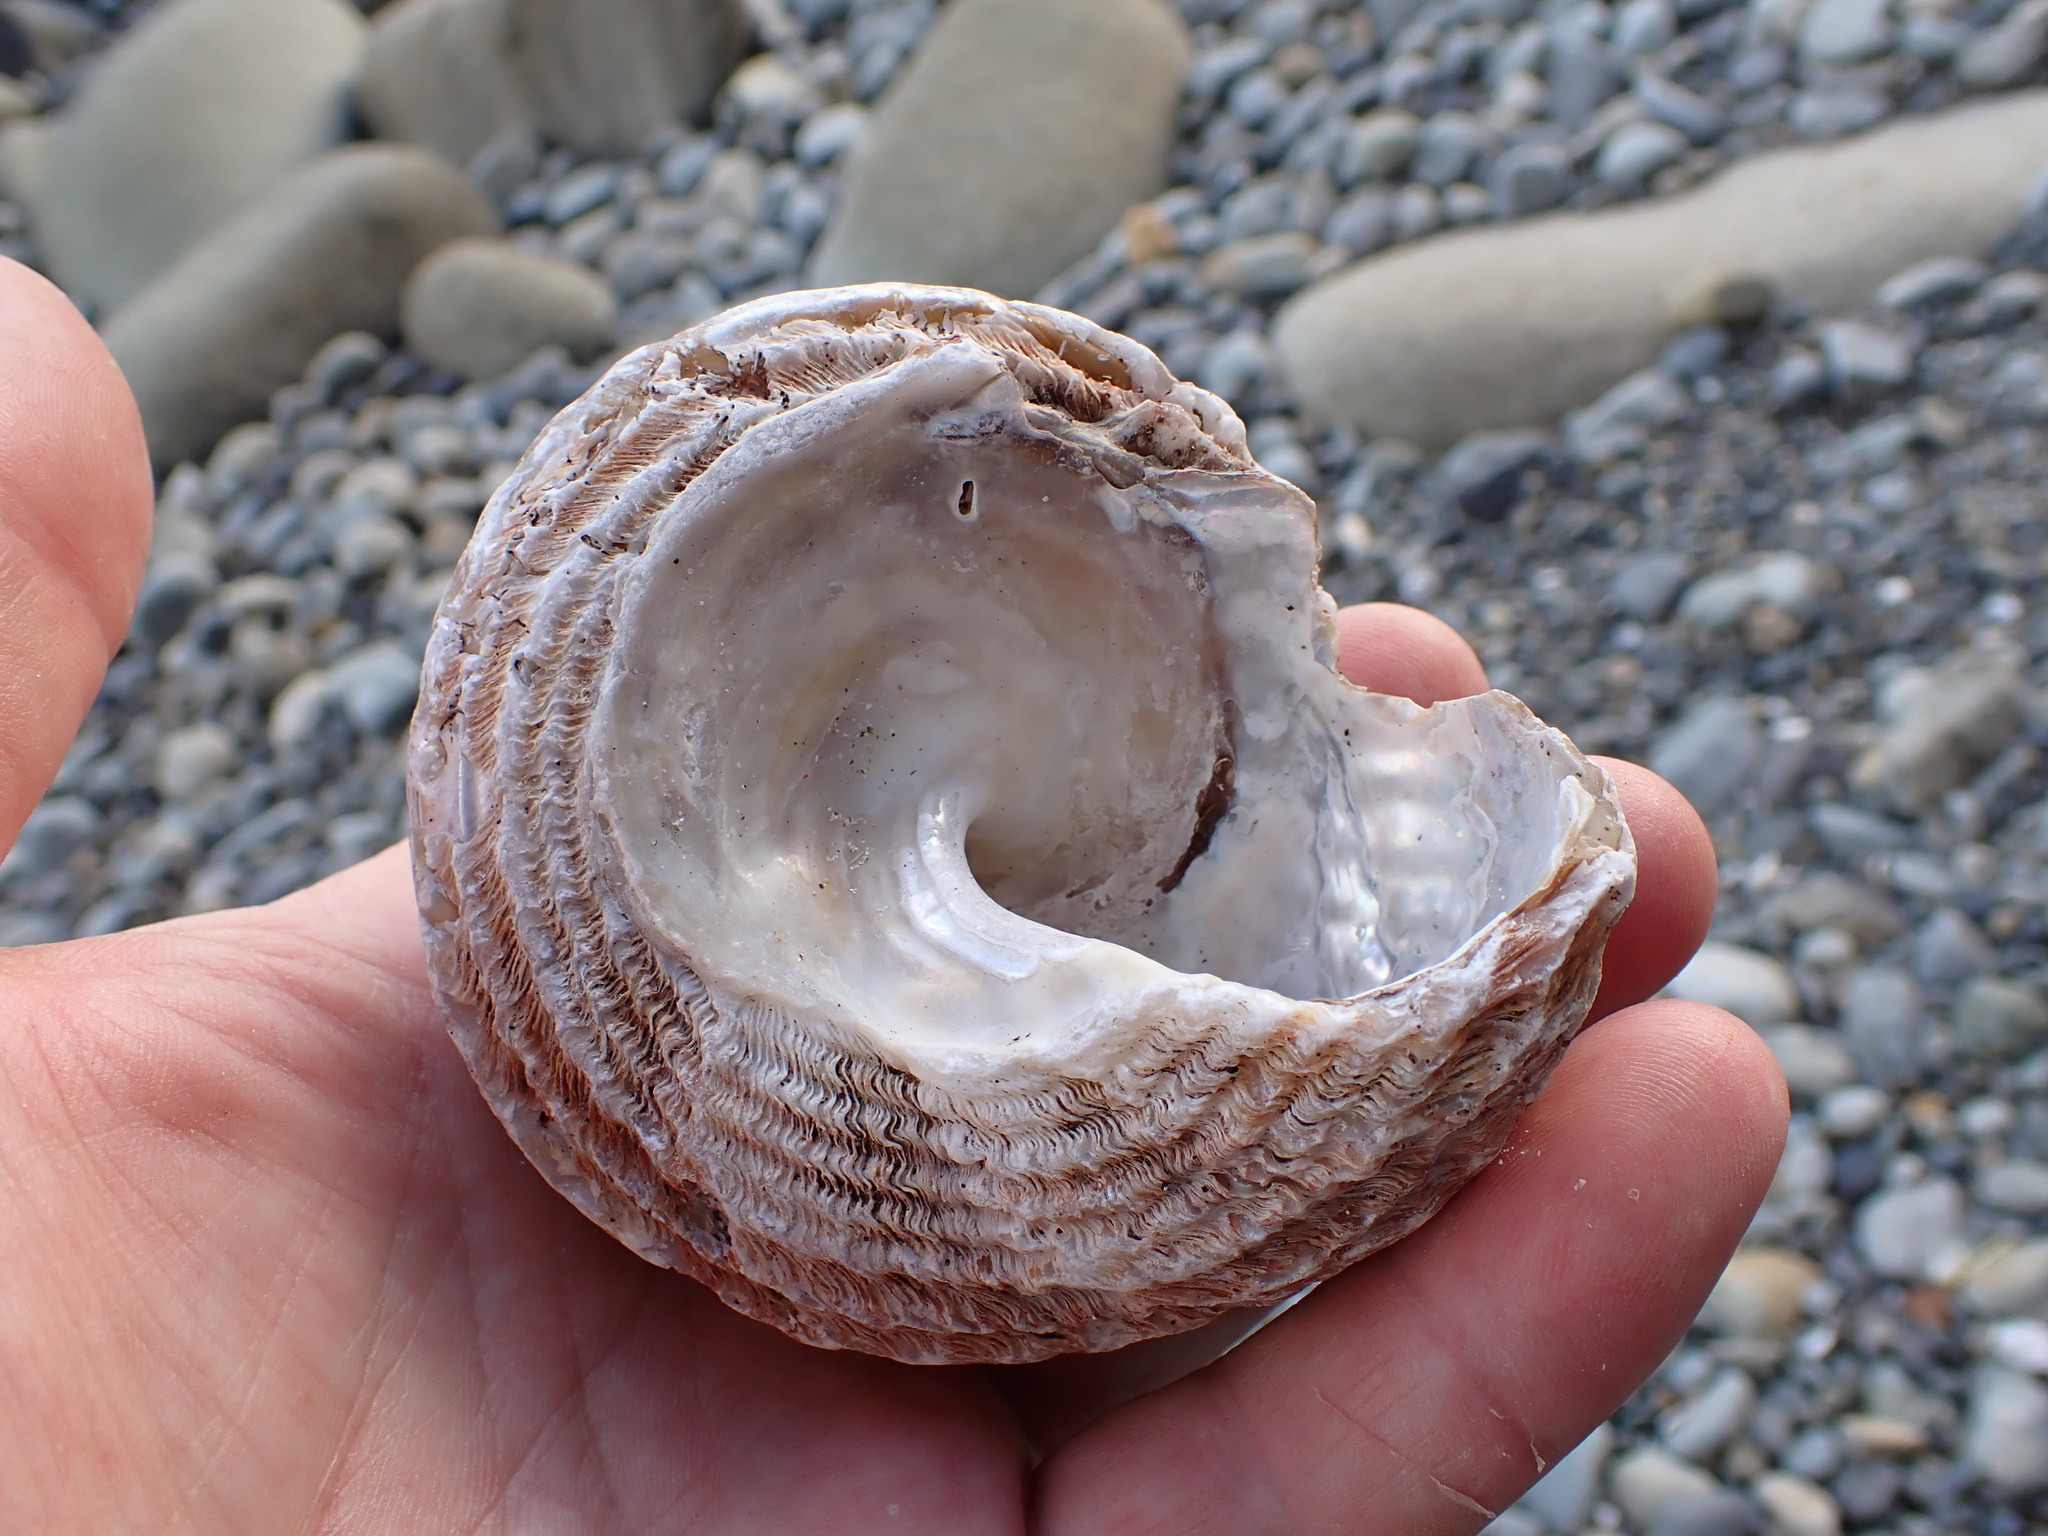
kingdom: Animalia
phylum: Mollusca
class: Gastropoda
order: Trochida
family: Turbinidae
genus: Cookia
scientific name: Cookia sulcata
